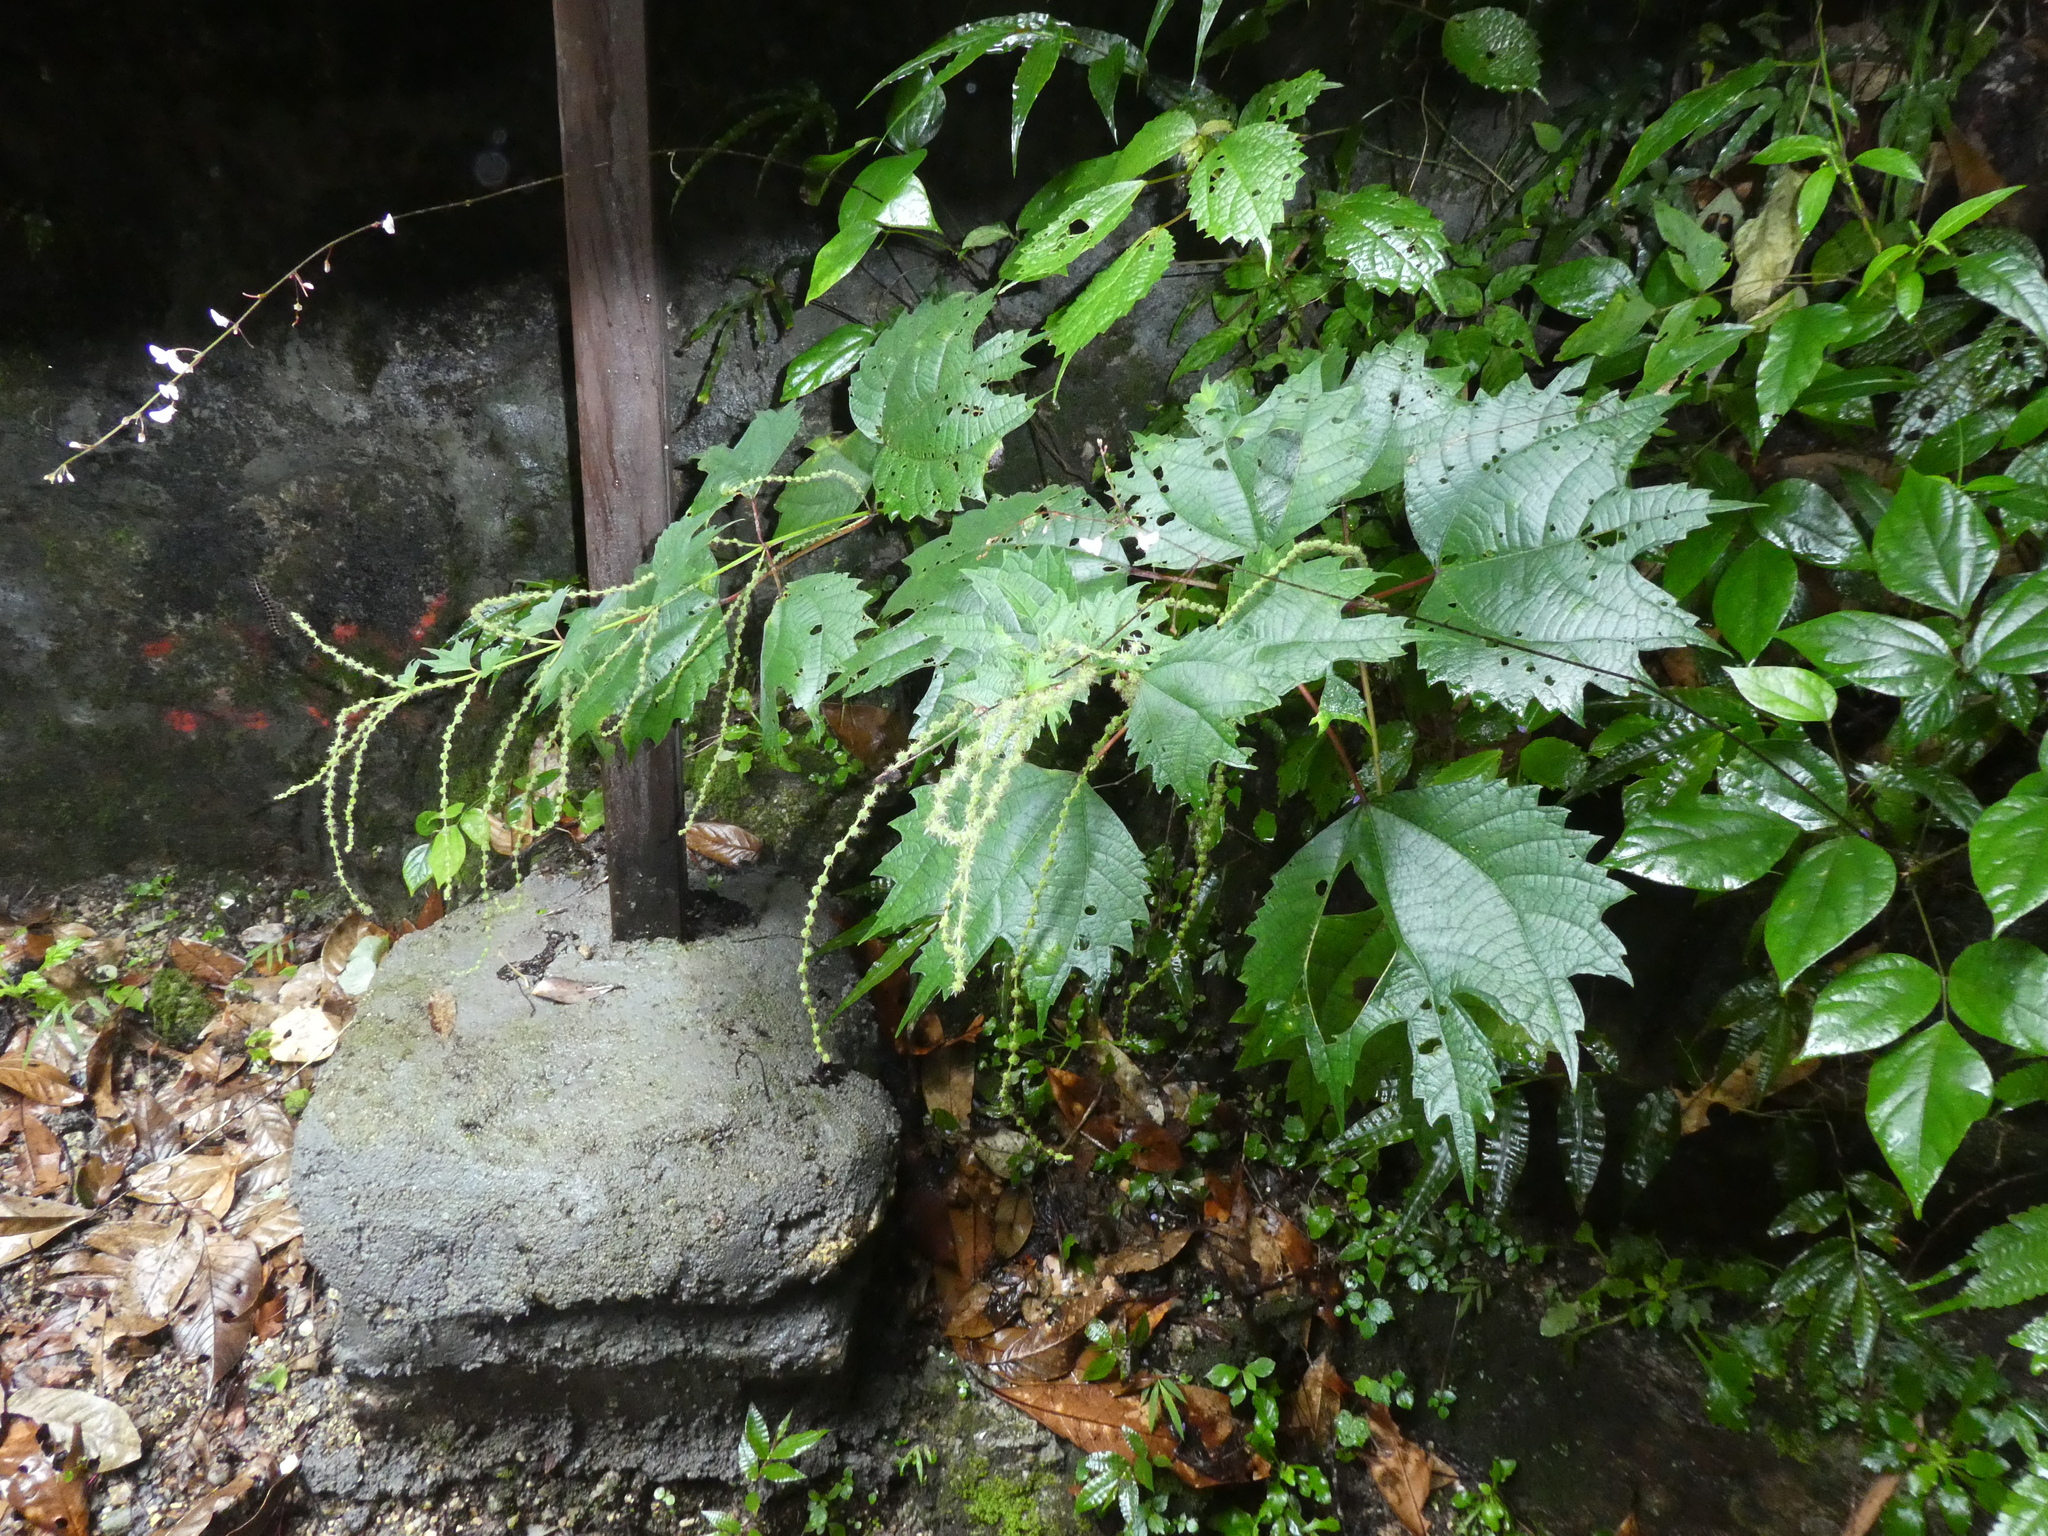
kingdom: Plantae
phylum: Tracheophyta
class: Magnoliopsida
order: Rosales
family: Urticaceae
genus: Boehmeria
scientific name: Boehmeria japonica
